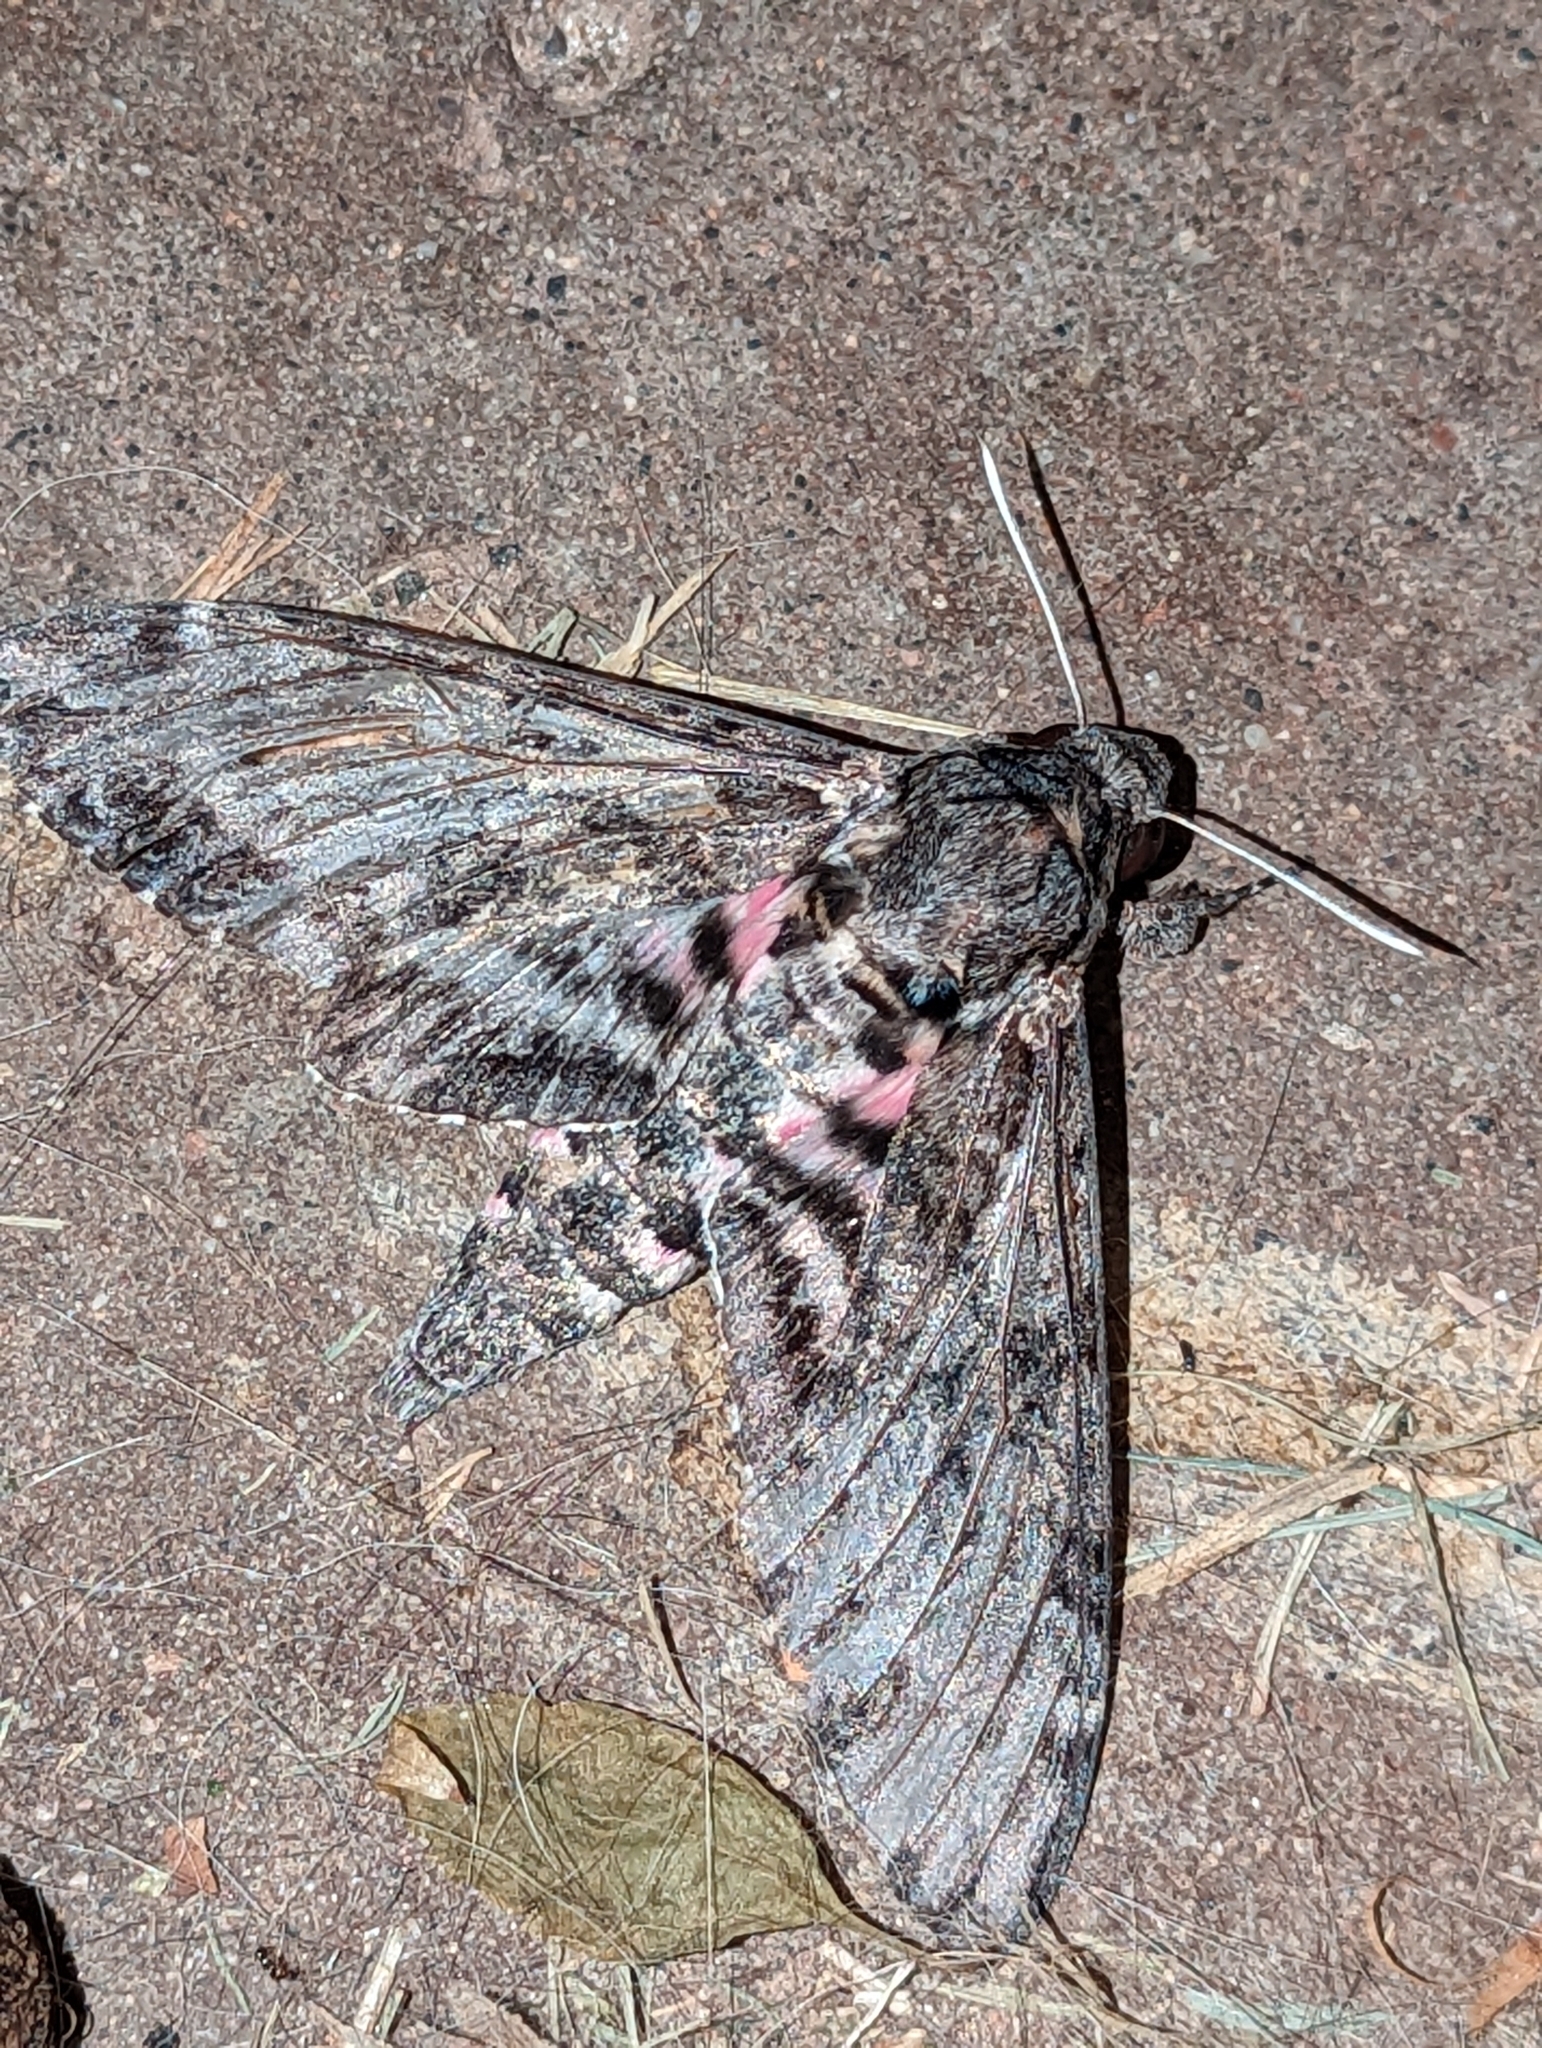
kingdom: Animalia
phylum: Arthropoda
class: Insecta
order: Lepidoptera
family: Sphingidae
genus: Agrius
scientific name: Agrius cingulata
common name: Pink-spotted hawkmoth
